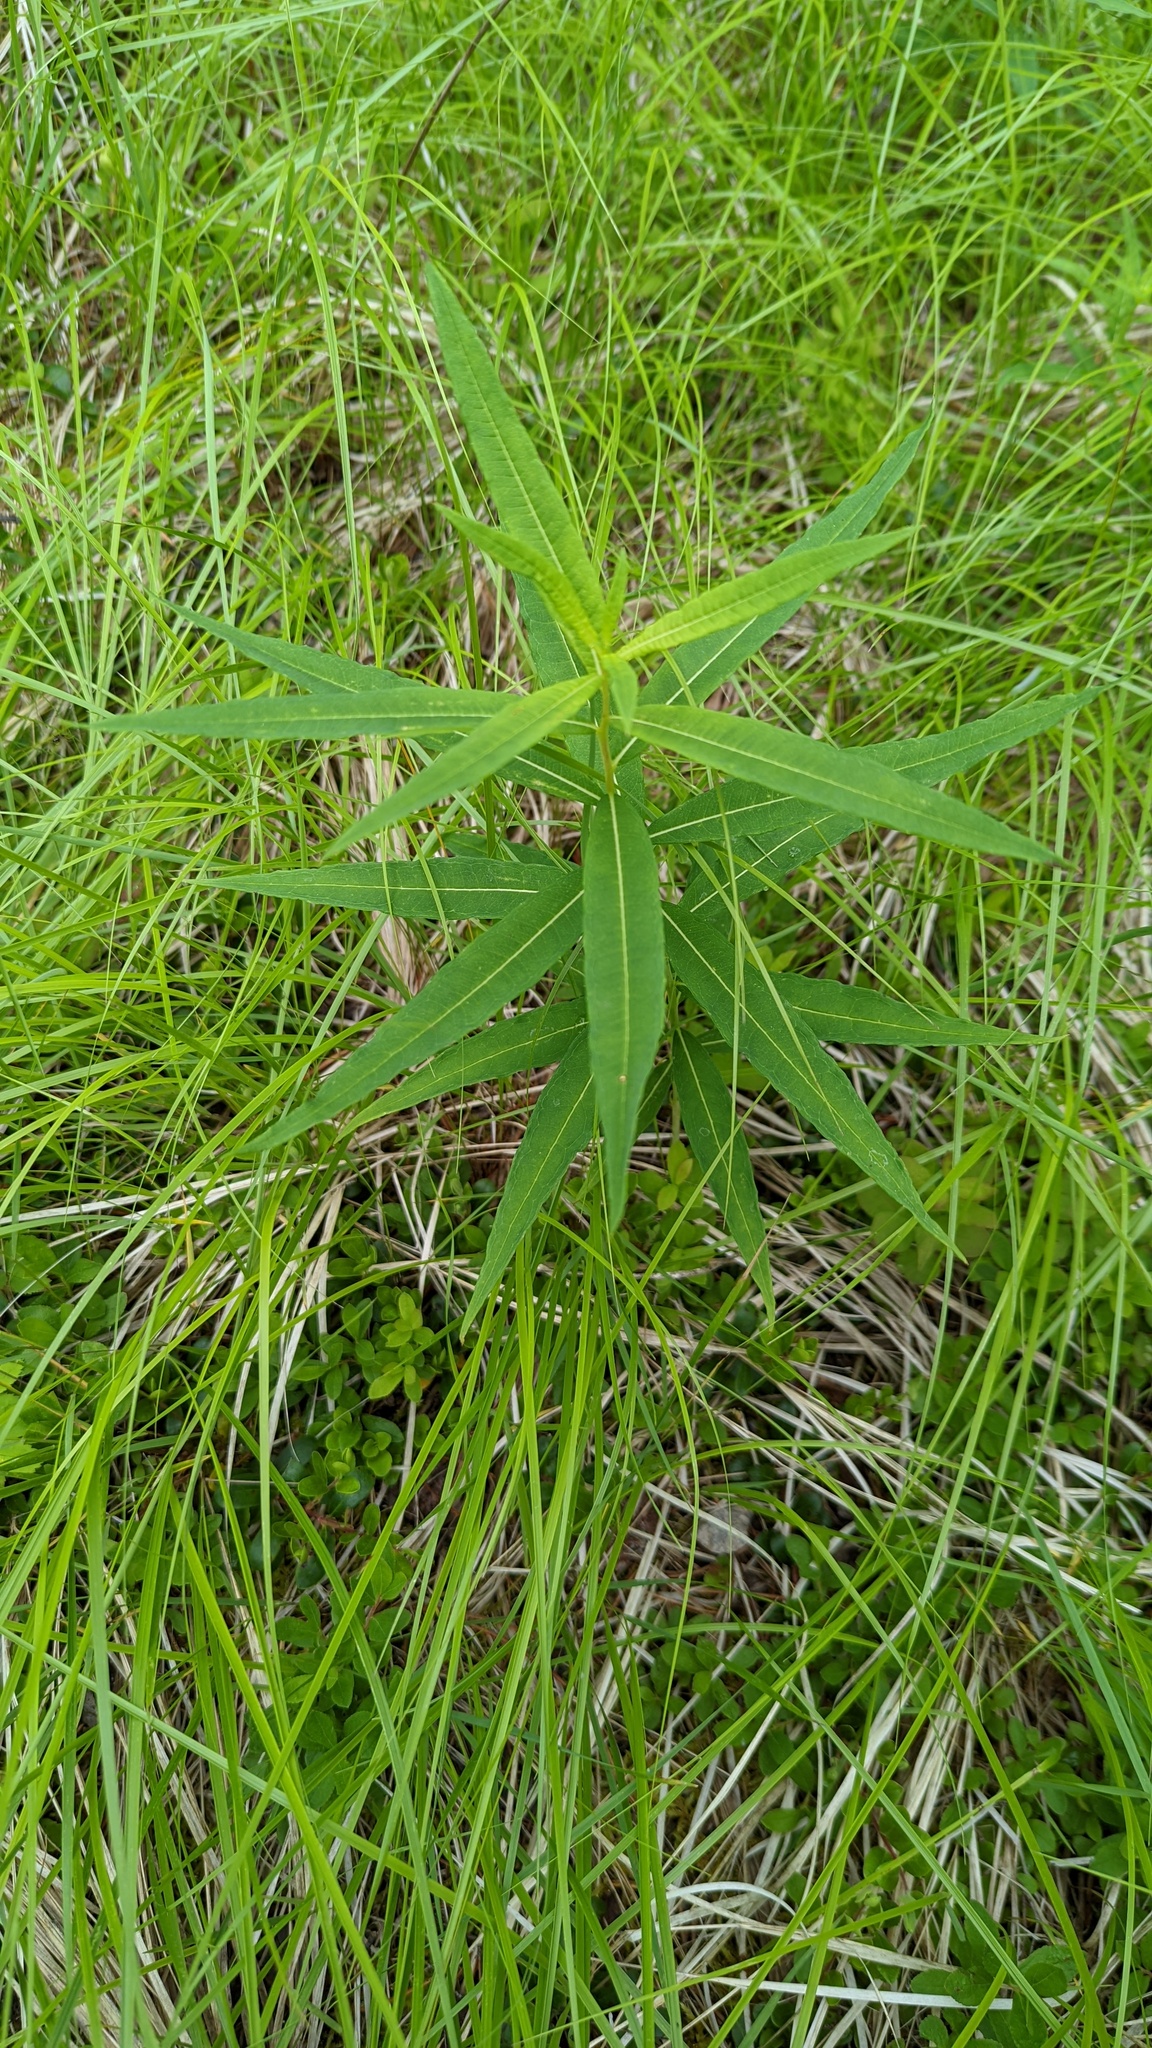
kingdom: Plantae
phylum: Tracheophyta
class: Magnoliopsida
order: Myrtales
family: Onagraceae
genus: Chamaenerion
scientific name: Chamaenerion angustifolium
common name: Fireweed
